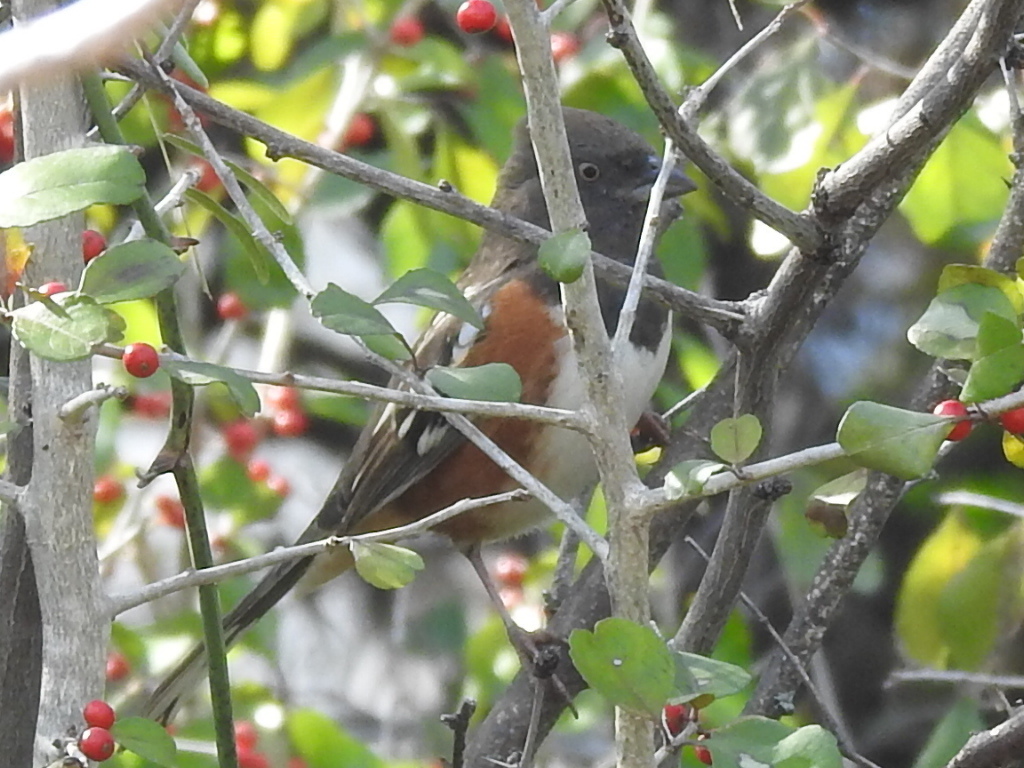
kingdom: Animalia
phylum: Chordata
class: Aves
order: Passeriformes
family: Passerellidae
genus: Pipilo
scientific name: Pipilo maculatus
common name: Spotted towhee
